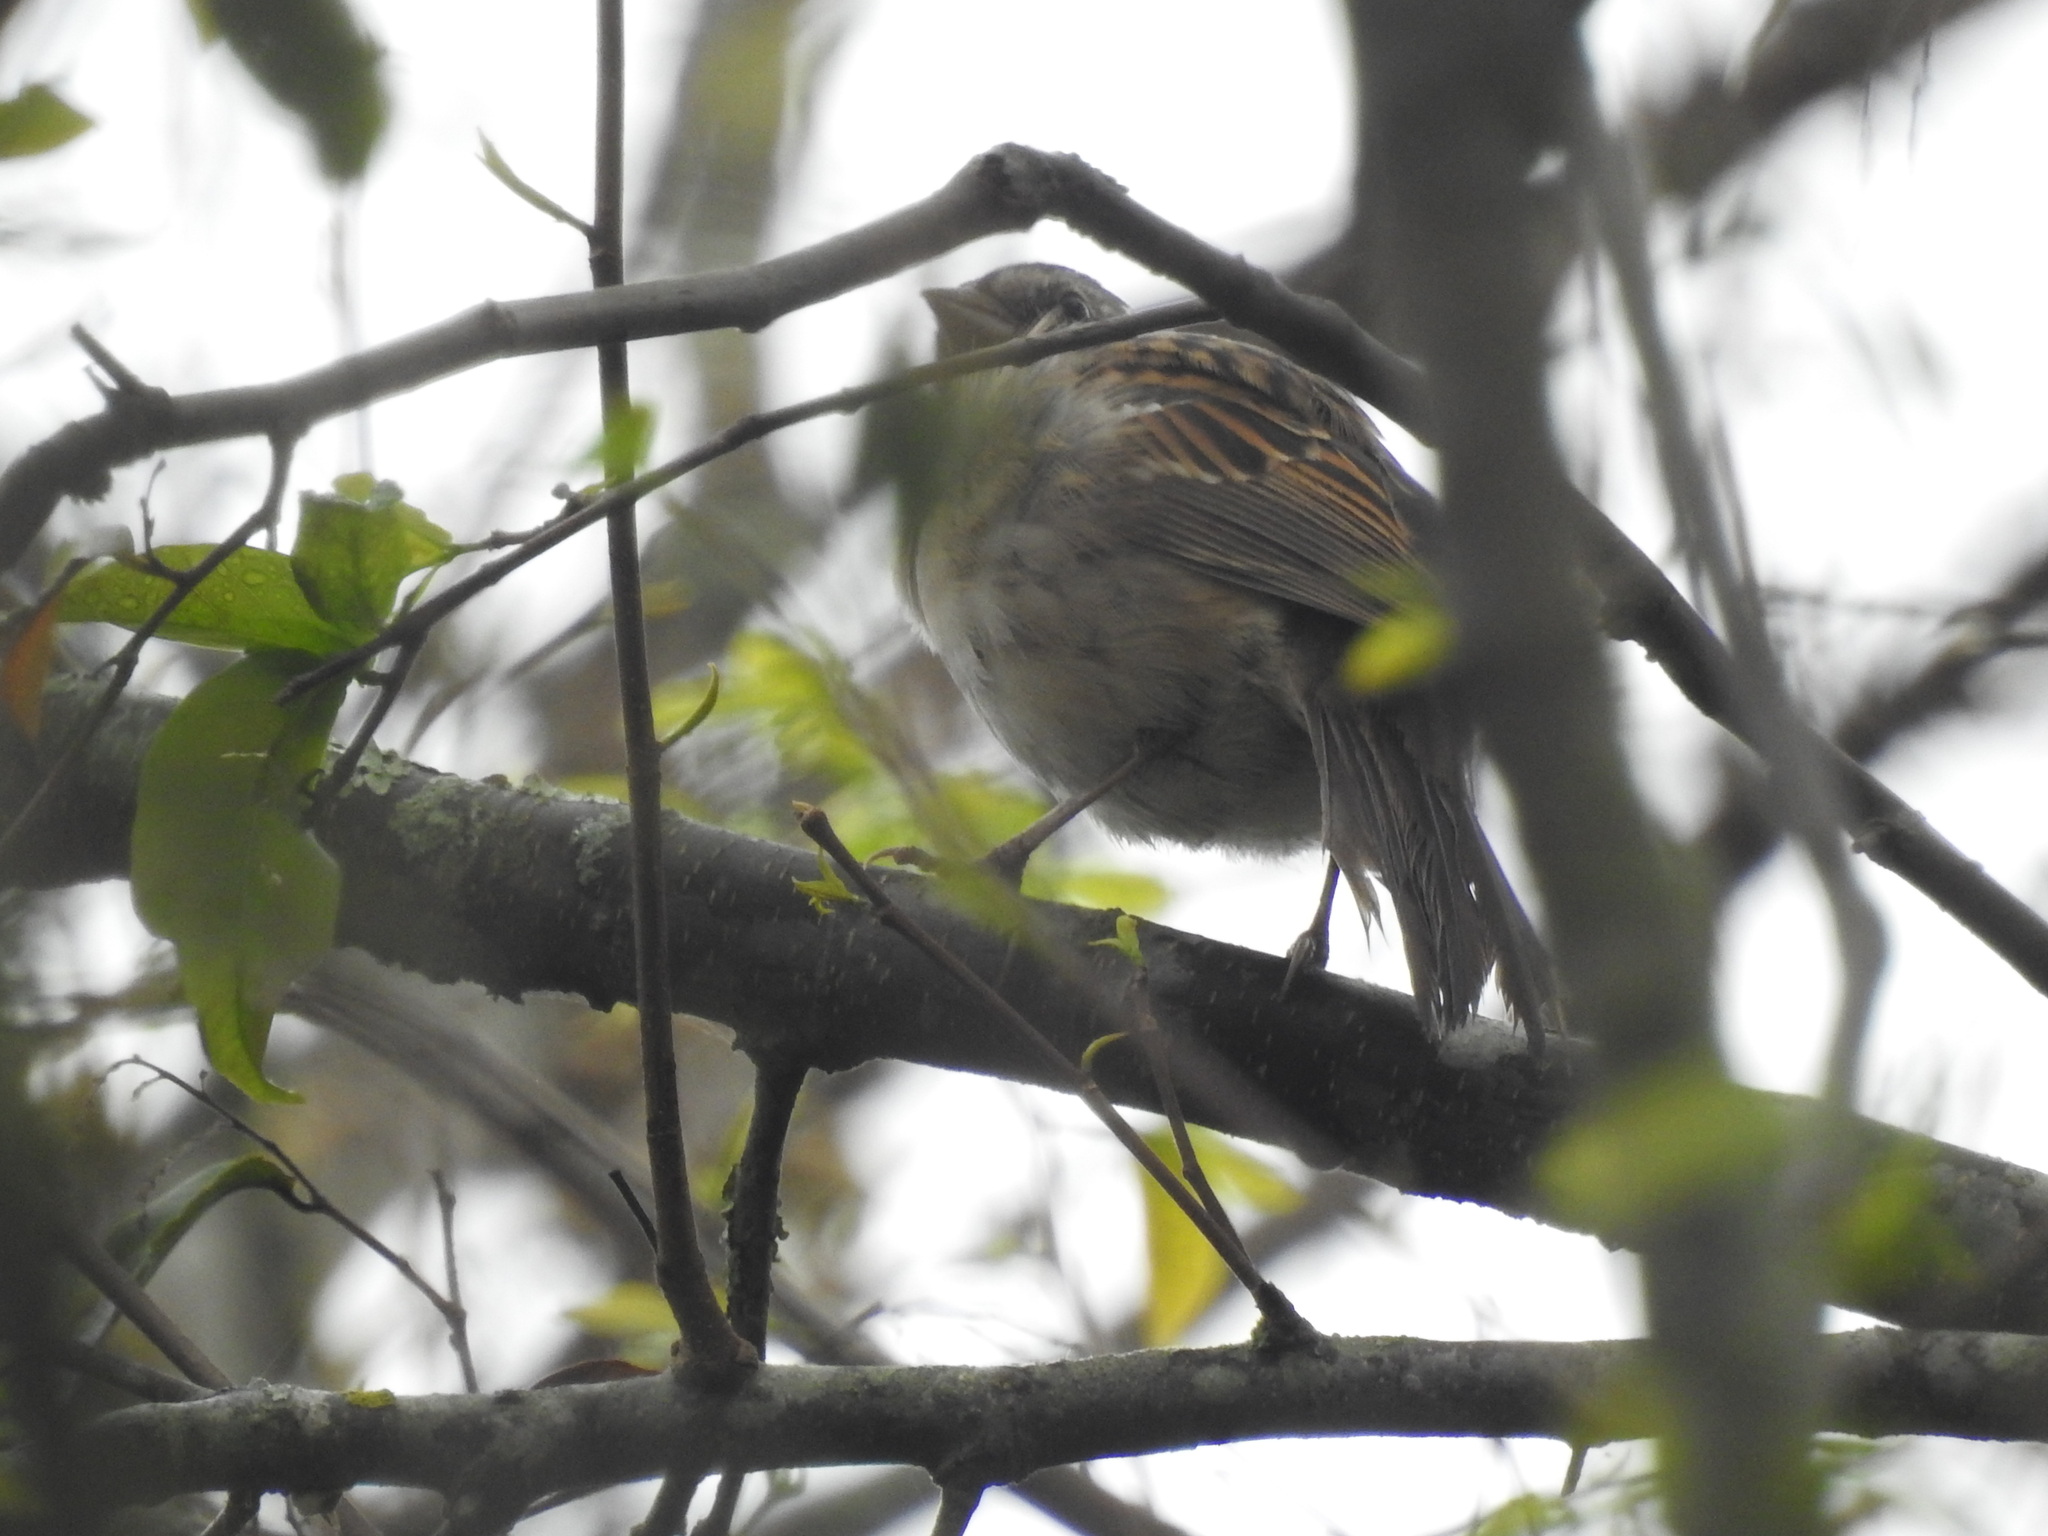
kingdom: Animalia
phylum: Chordata
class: Aves
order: Passeriformes
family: Passerellidae
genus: Zonotrichia
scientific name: Zonotrichia capensis
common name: Rufous-collared sparrow
